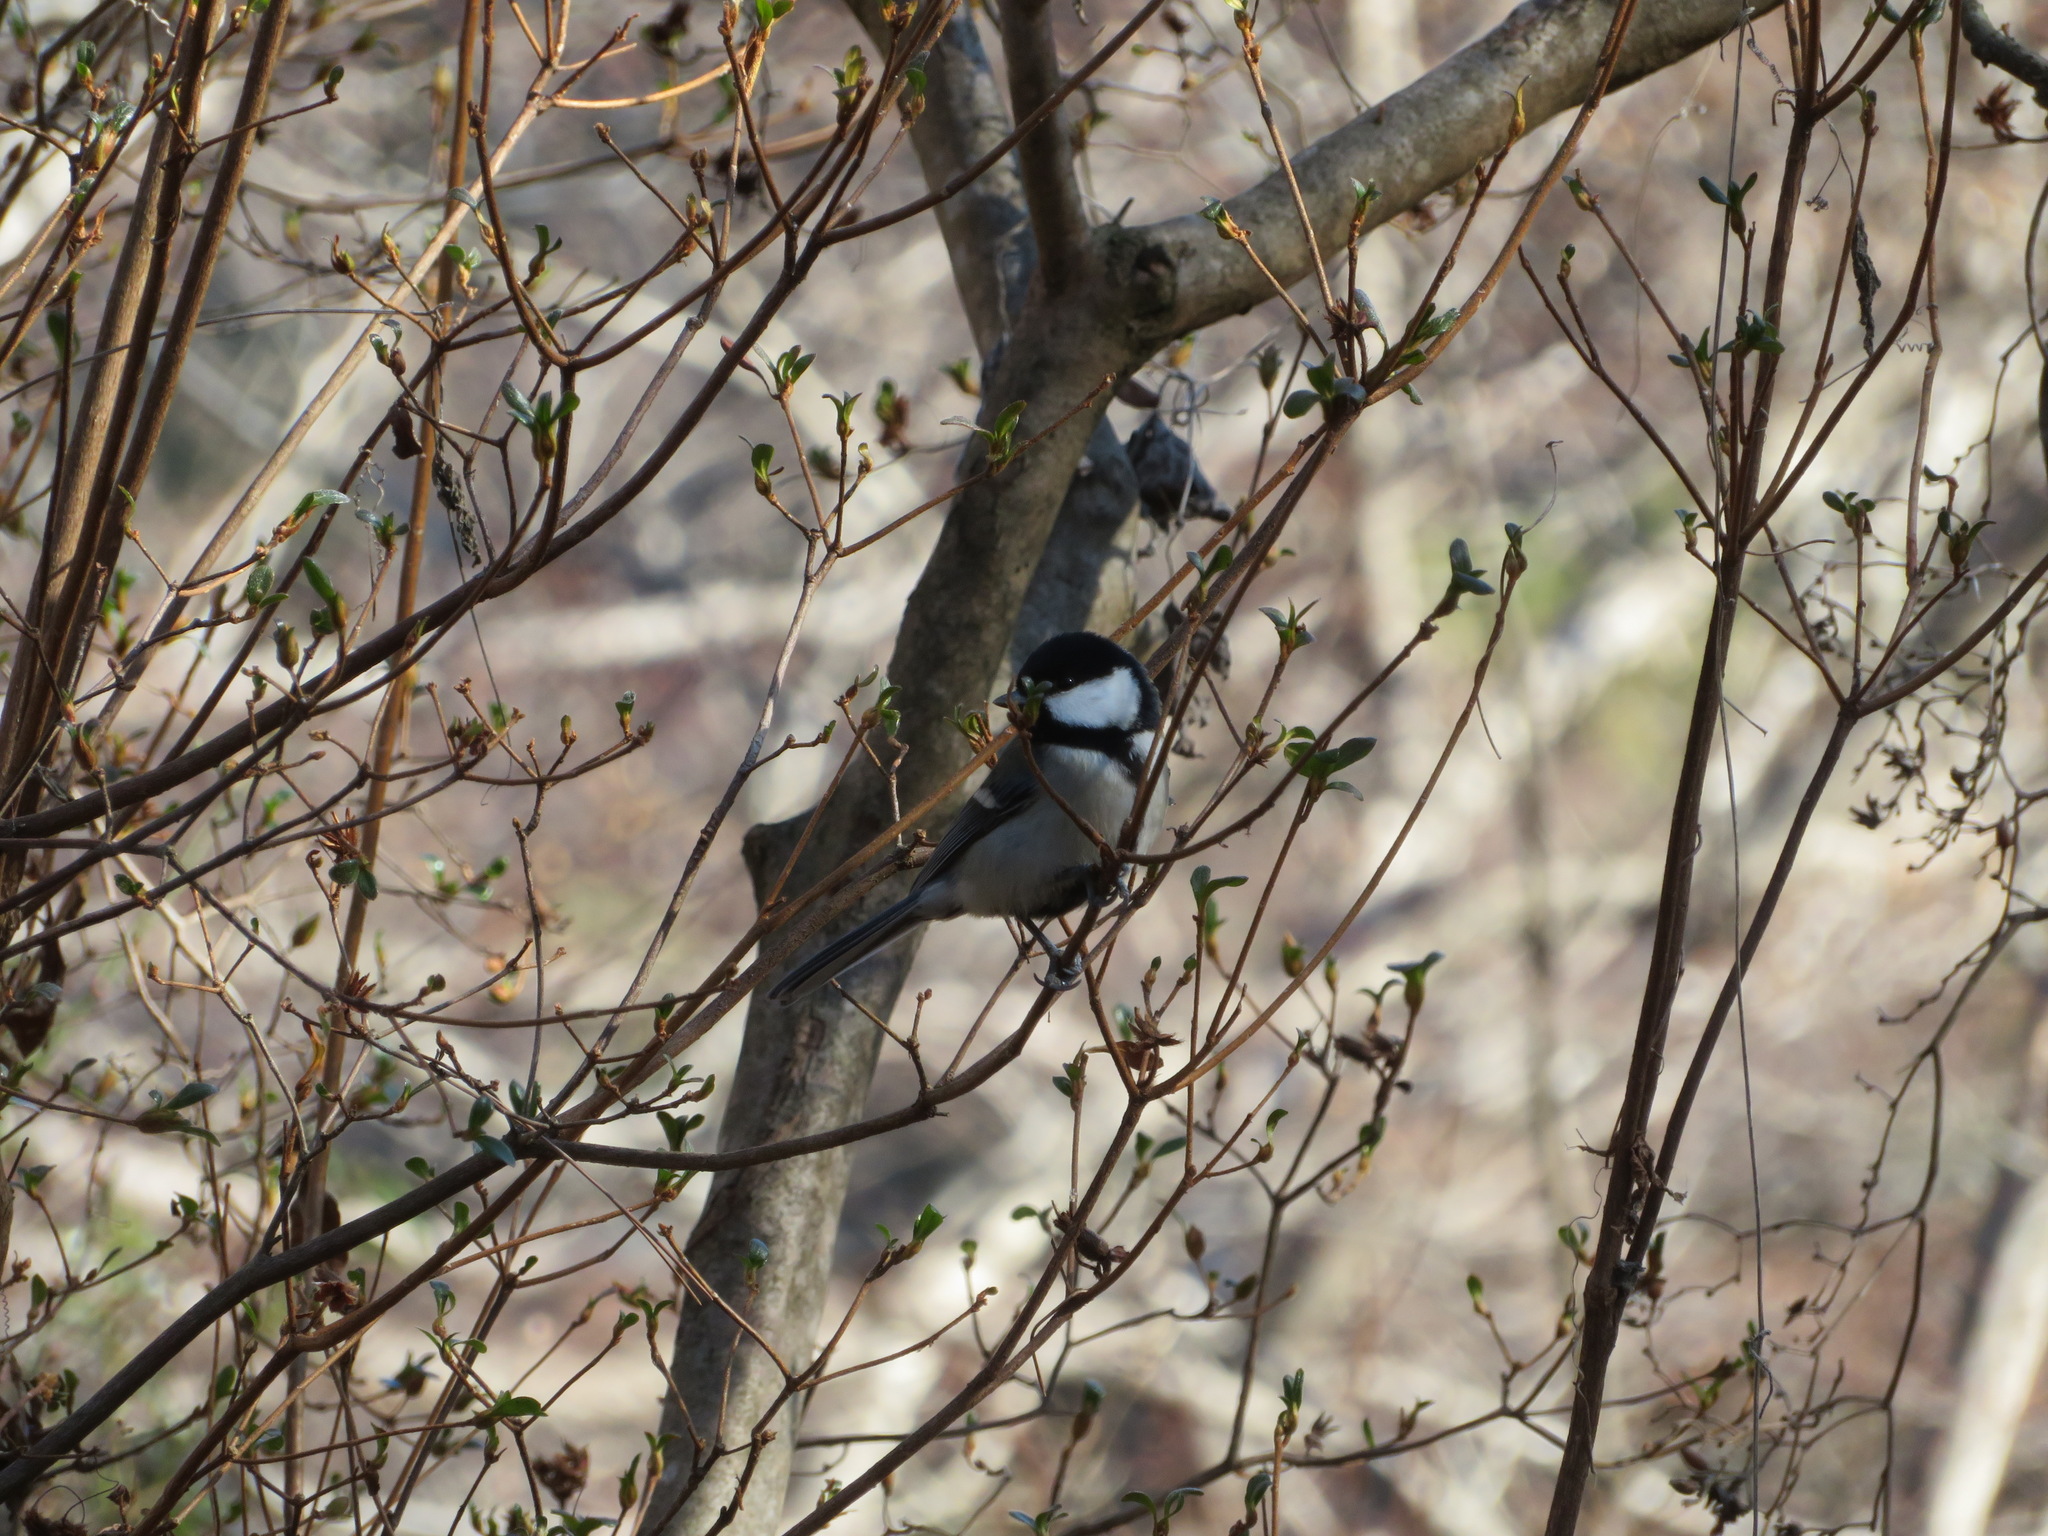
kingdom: Animalia
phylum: Chordata
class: Aves
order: Passeriformes
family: Paridae
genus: Parus
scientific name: Parus minor
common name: Japanese tit
